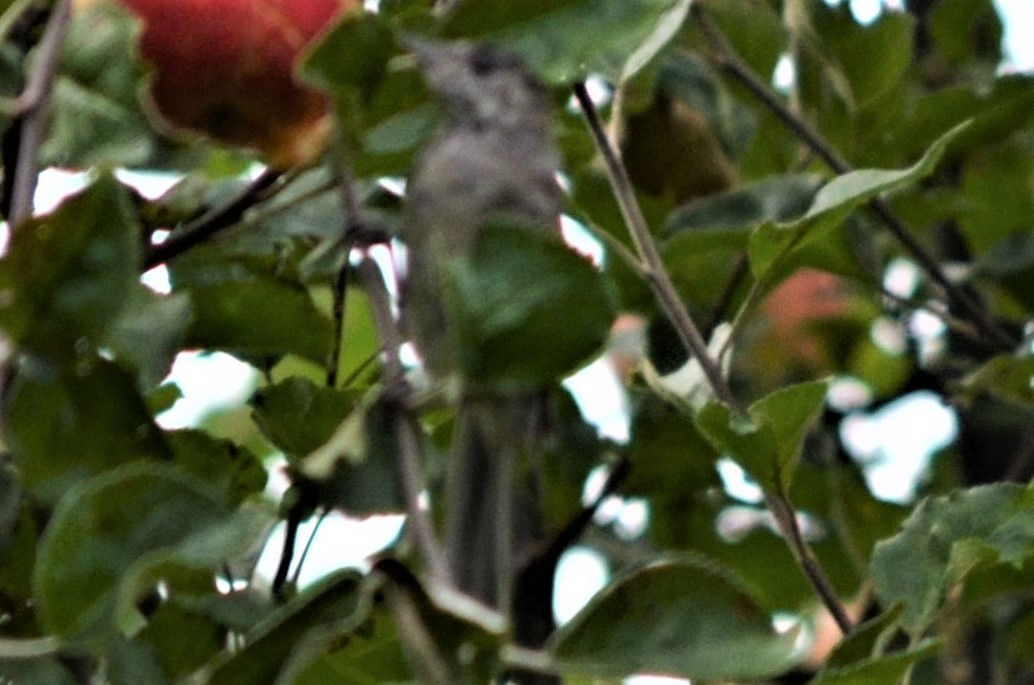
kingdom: Animalia
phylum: Chordata
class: Aves
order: Passeriformes
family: Sylviidae
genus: Sylvia
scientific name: Sylvia atricapilla
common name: Eurasian blackcap
